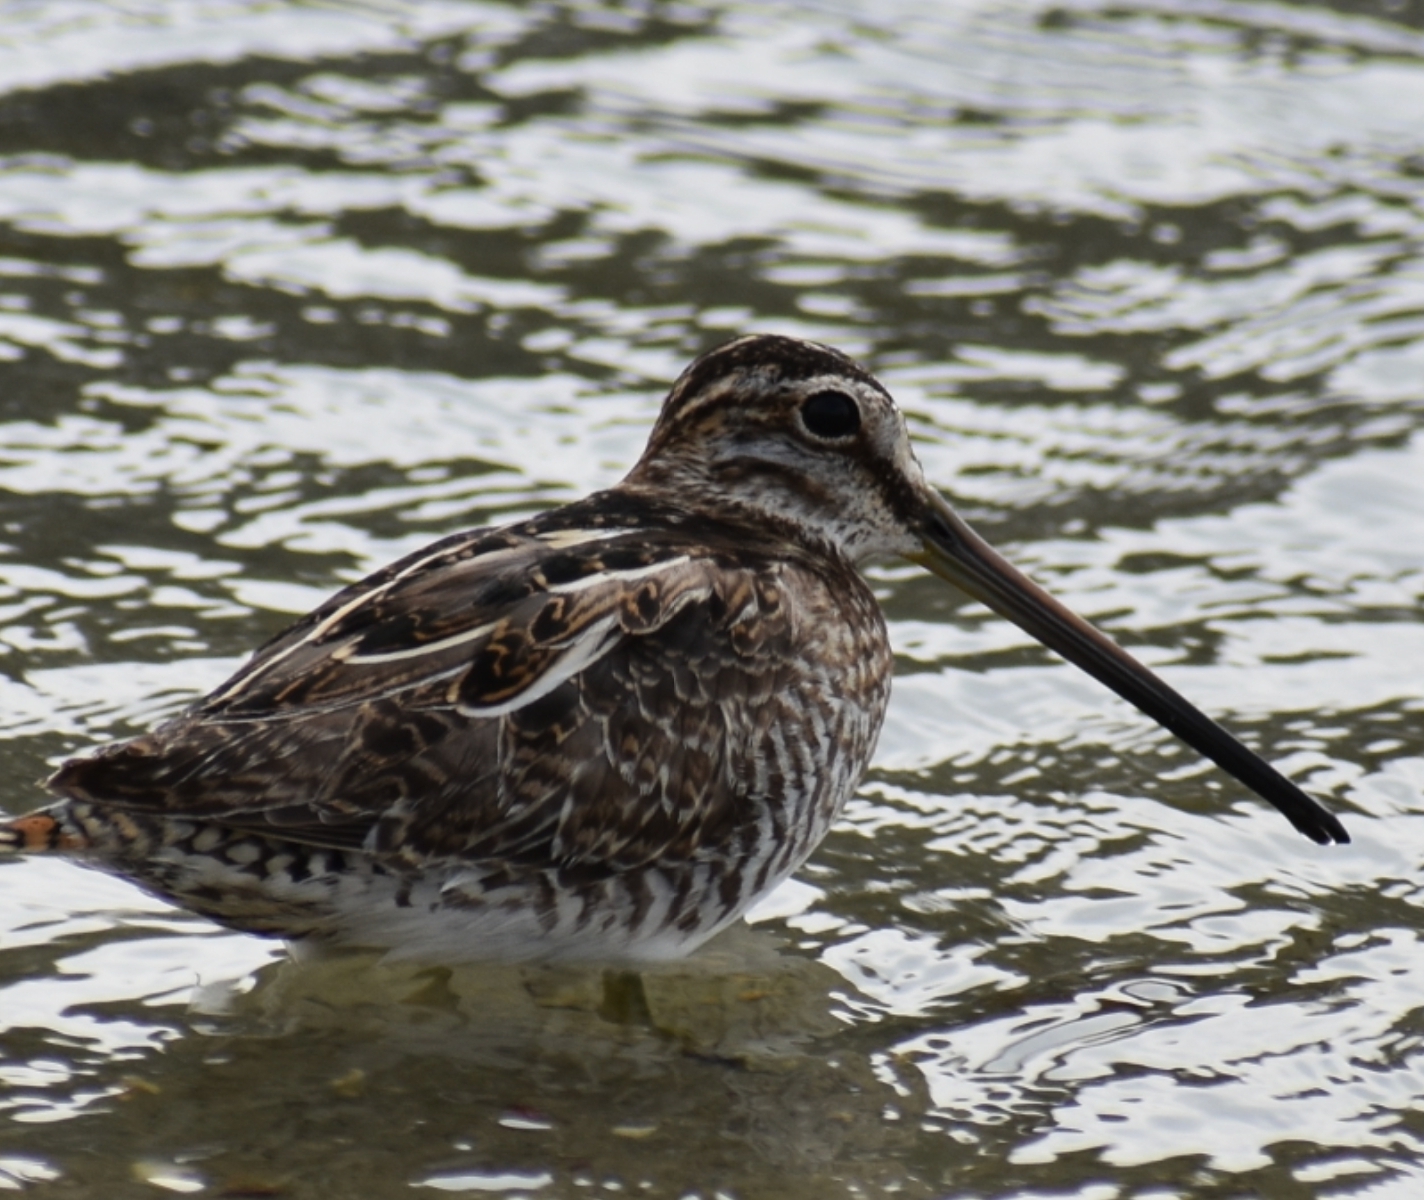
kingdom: Animalia
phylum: Chordata
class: Aves
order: Charadriiformes
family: Scolopacidae
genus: Gallinago
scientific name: Gallinago gallinago
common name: Common snipe
